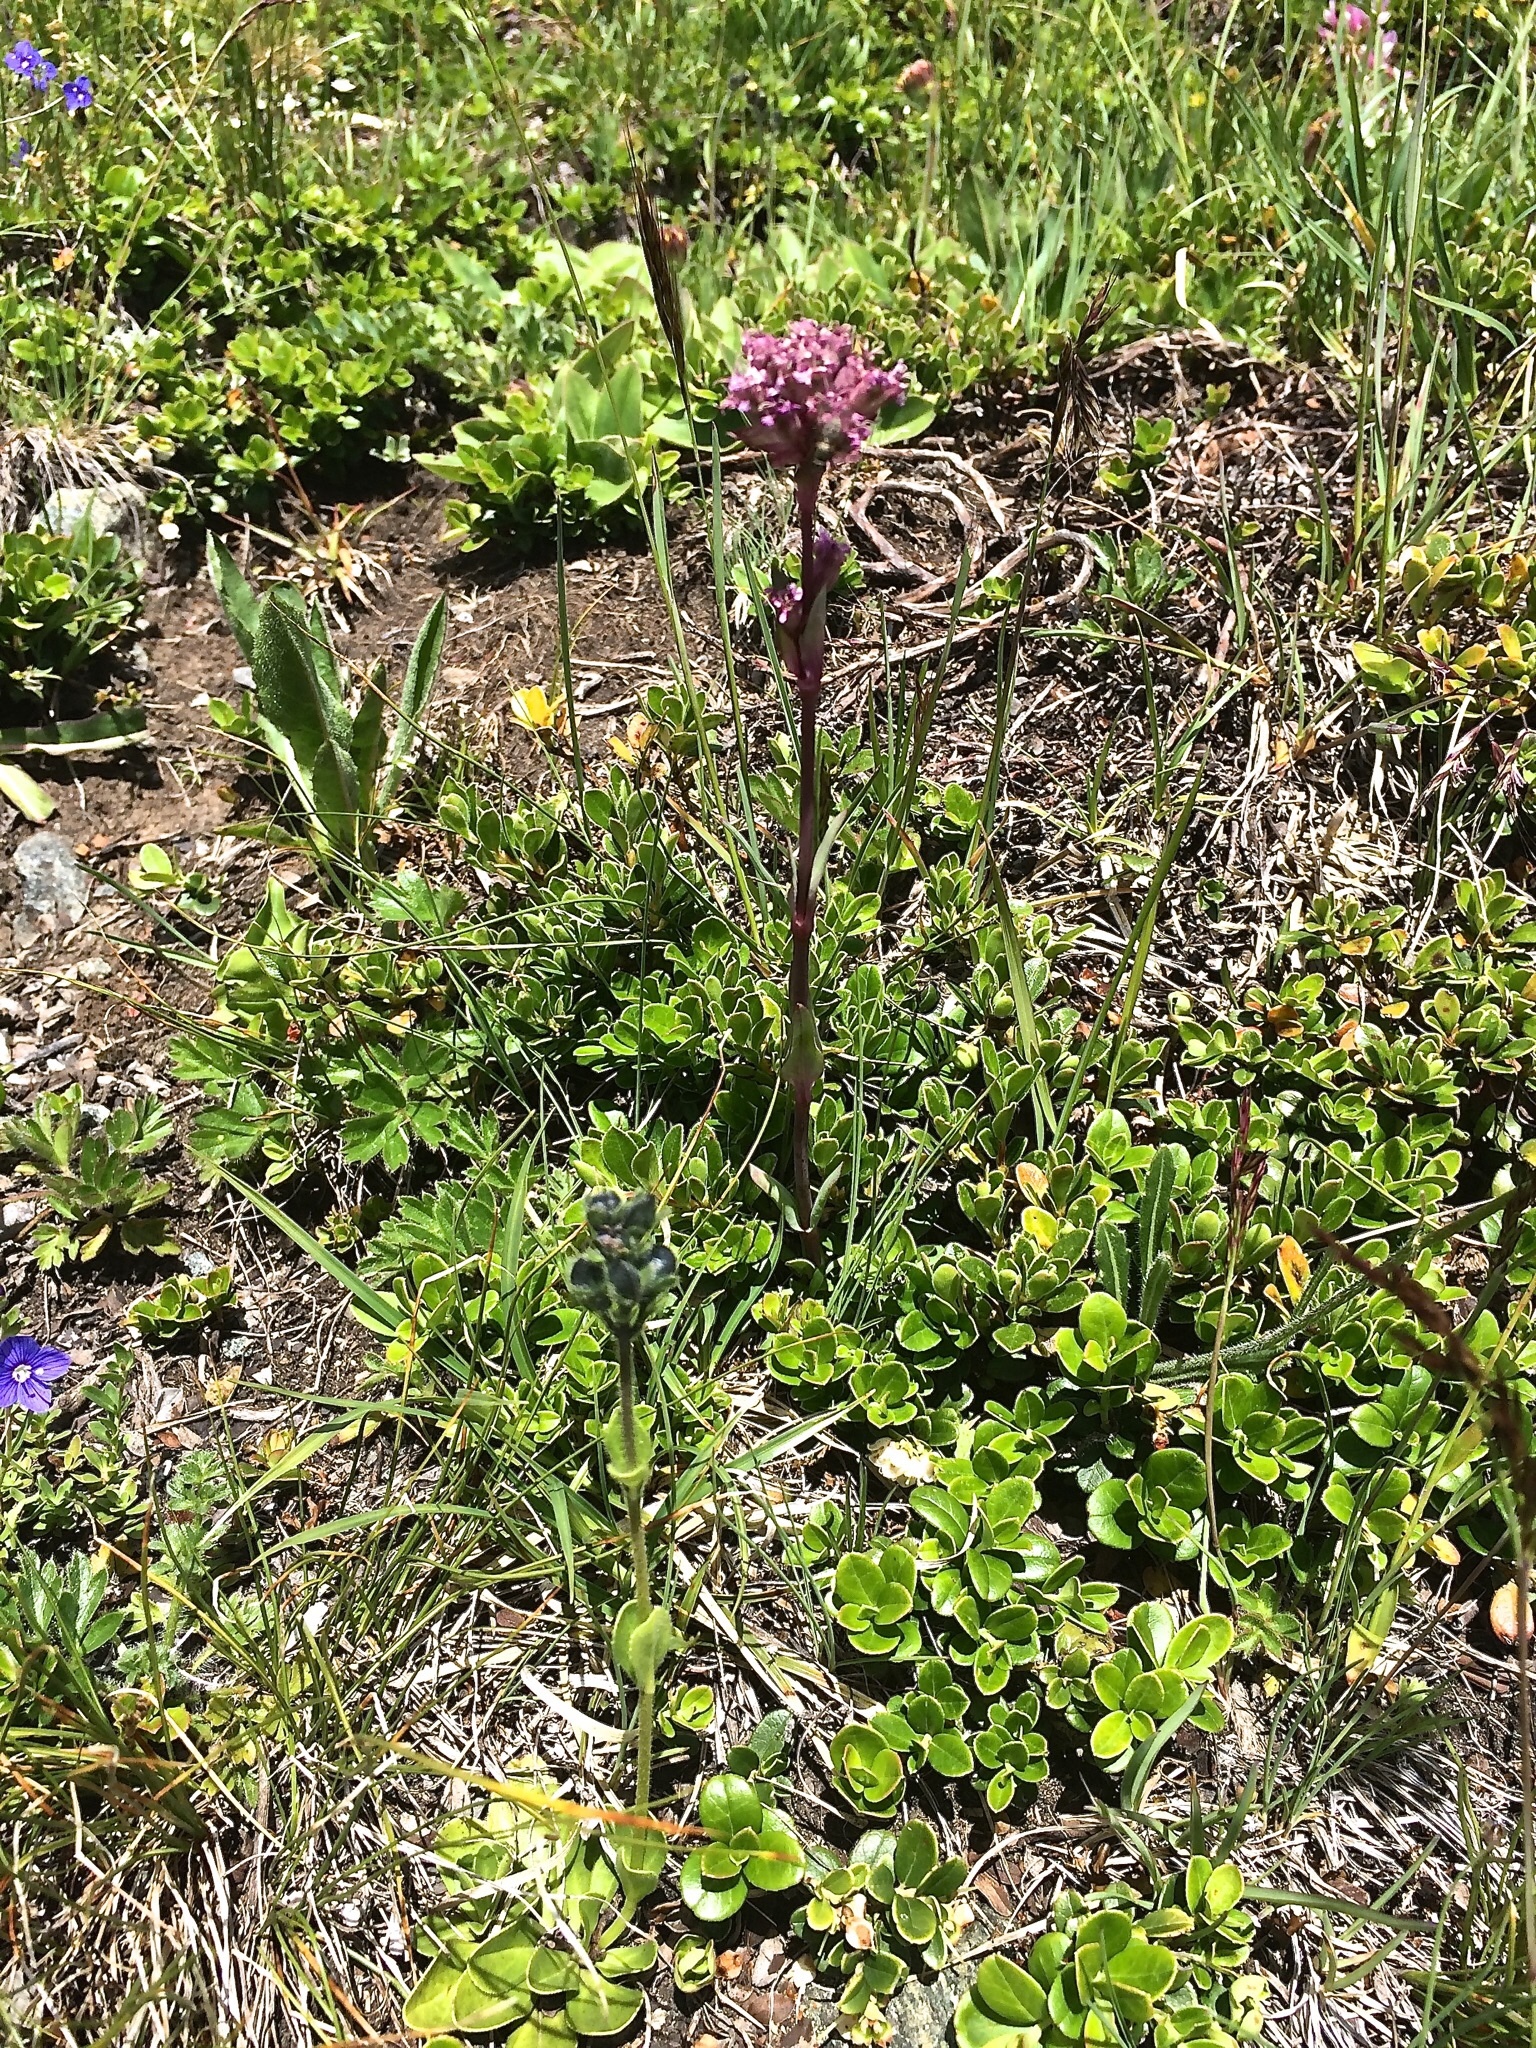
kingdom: Plantae
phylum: Tracheophyta
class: Magnoliopsida
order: Caryophyllales
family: Caryophyllaceae
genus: Viscaria
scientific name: Viscaria alpina
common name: Alpine campion
